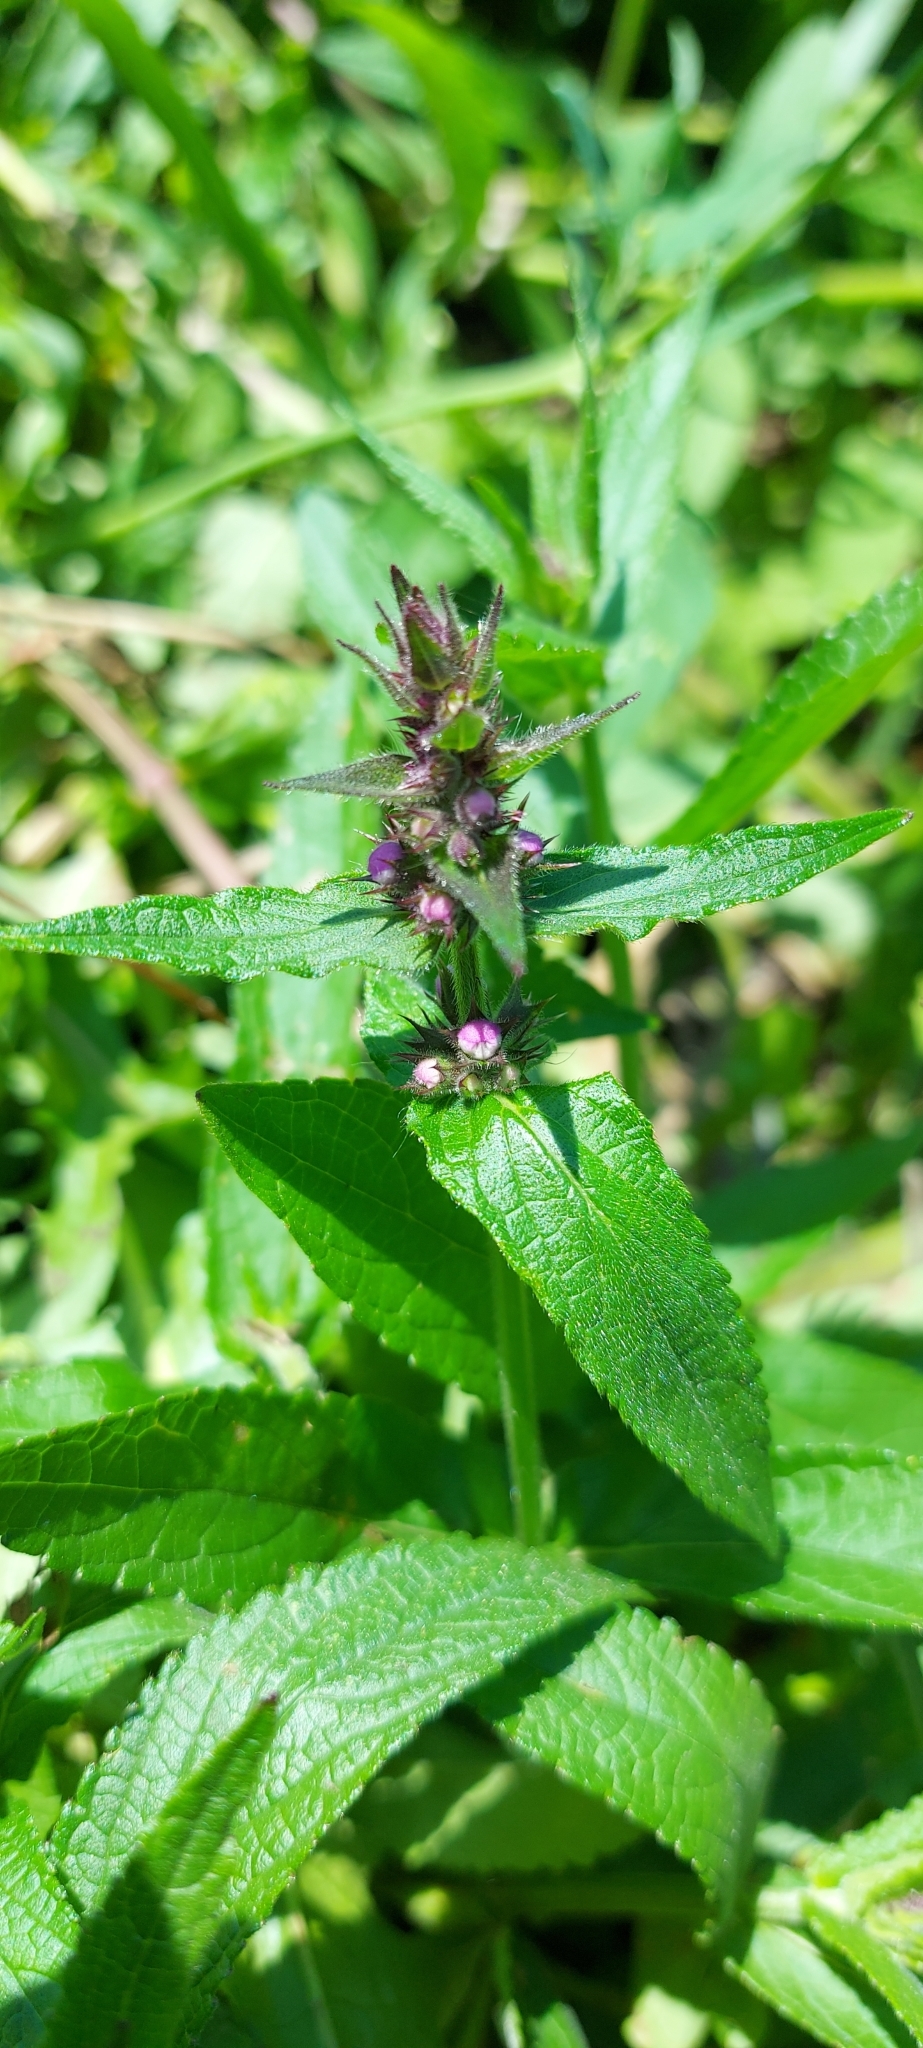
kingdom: Plantae
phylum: Tracheophyta
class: Magnoliopsida
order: Lamiales
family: Lamiaceae
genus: Stachys
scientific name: Stachys palustris
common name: Marsh woundwort
